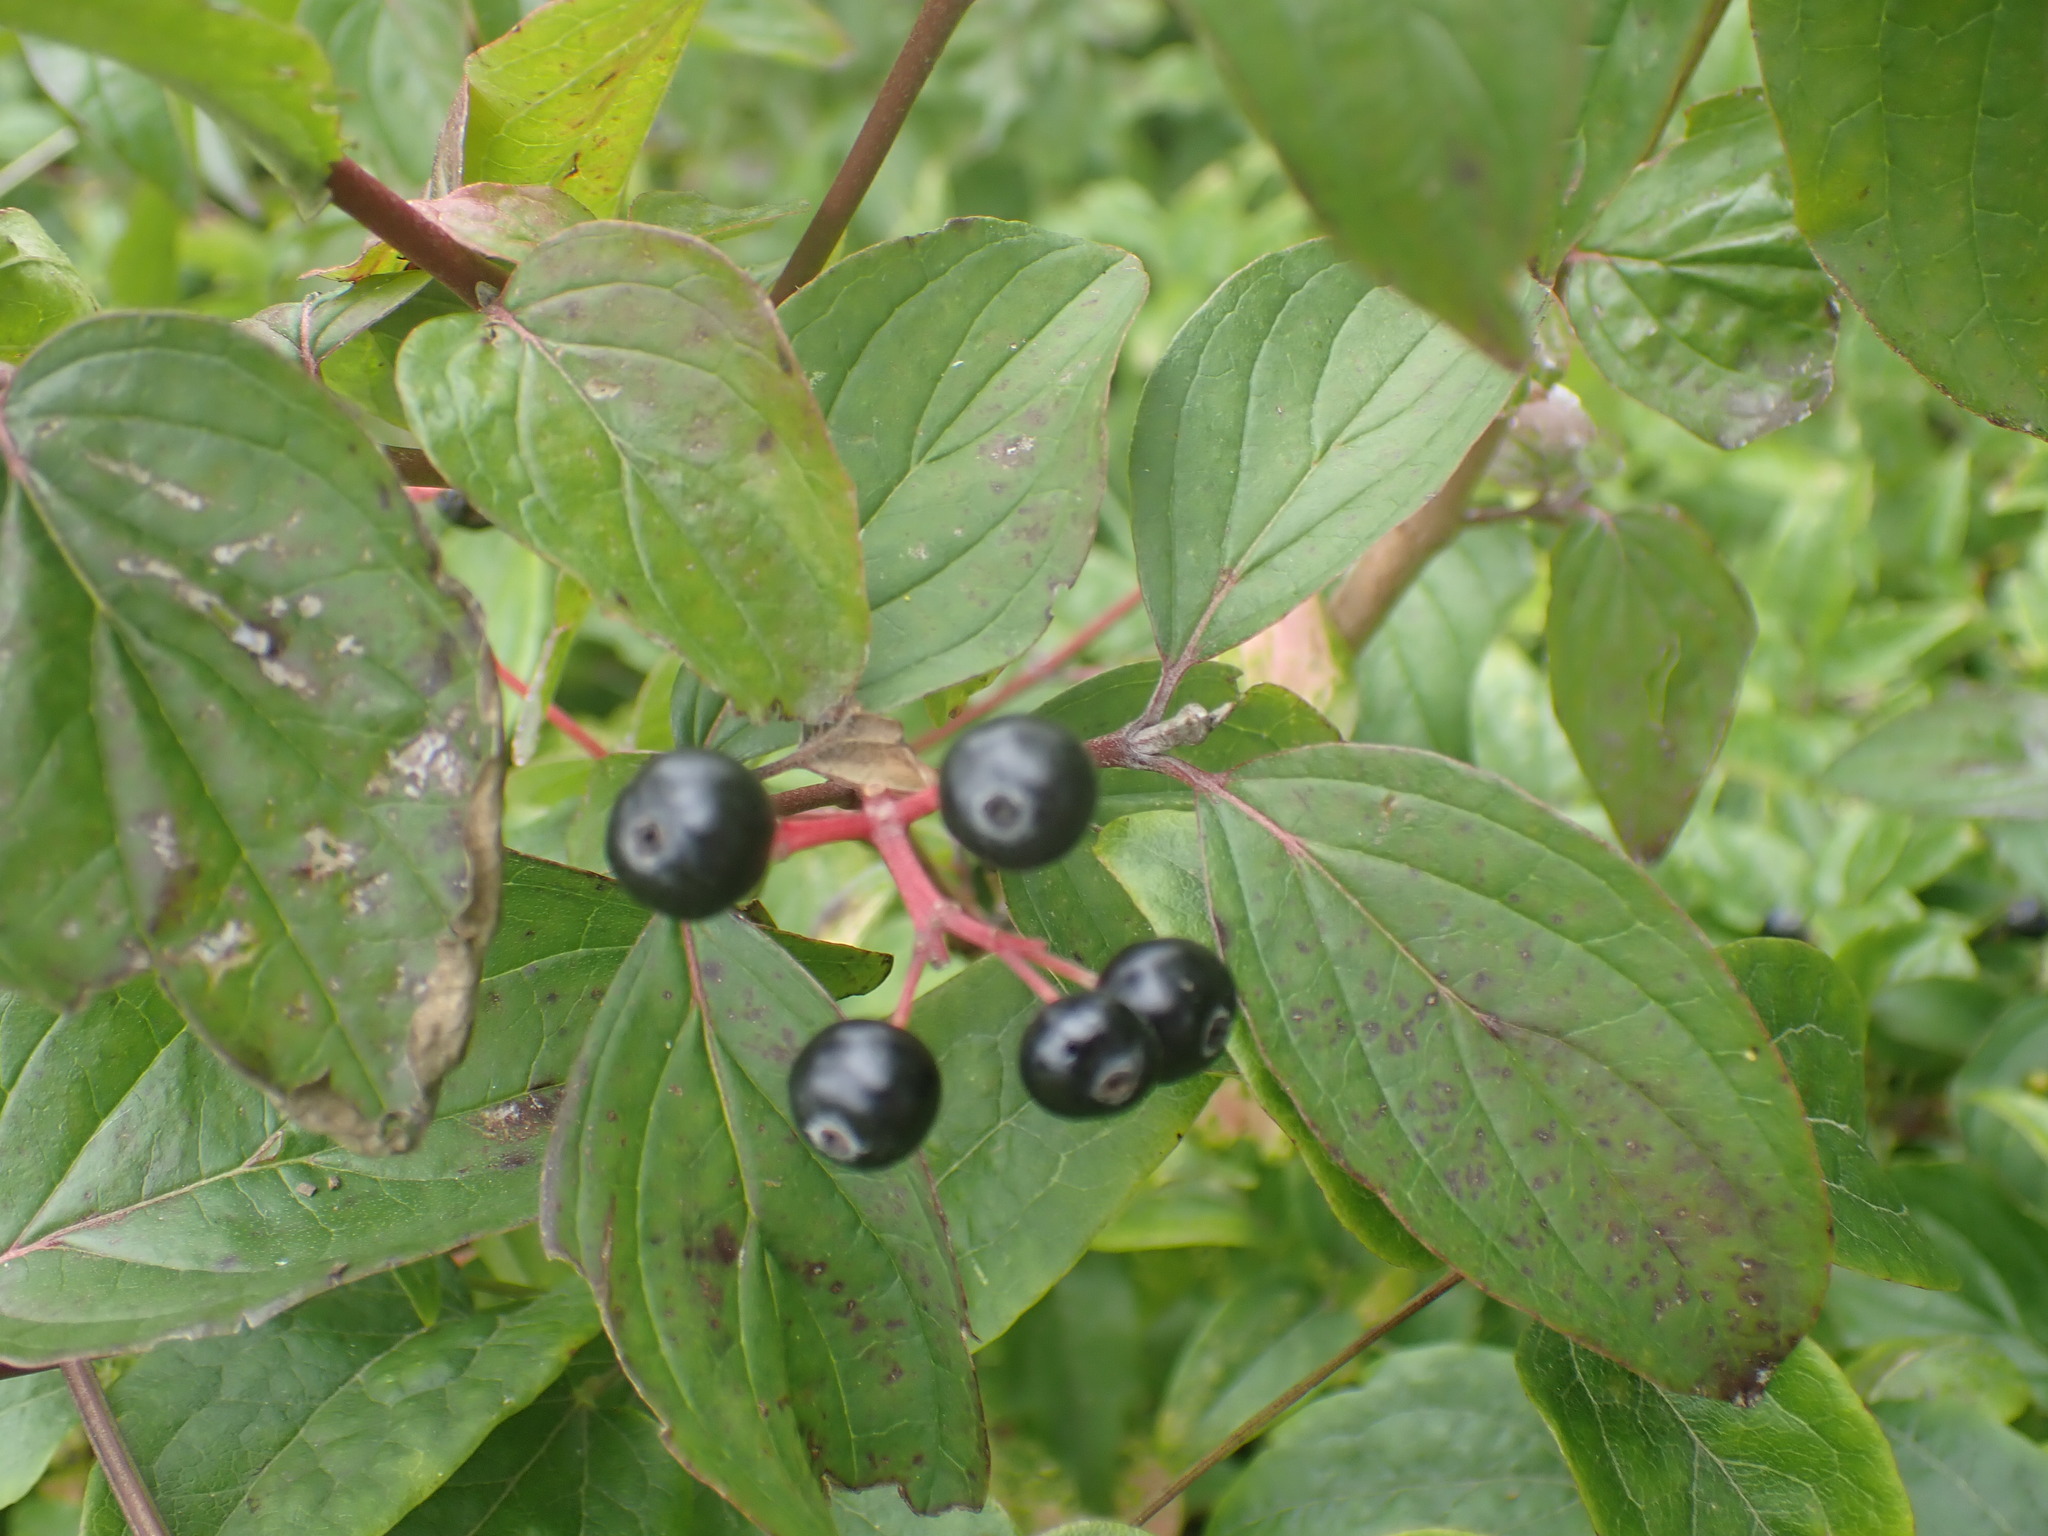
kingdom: Plantae
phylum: Tracheophyta
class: Magnoliopsida
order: Cornales
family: Cornaceae
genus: Cornus
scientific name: Cornus sanguinea
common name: Dogwood
